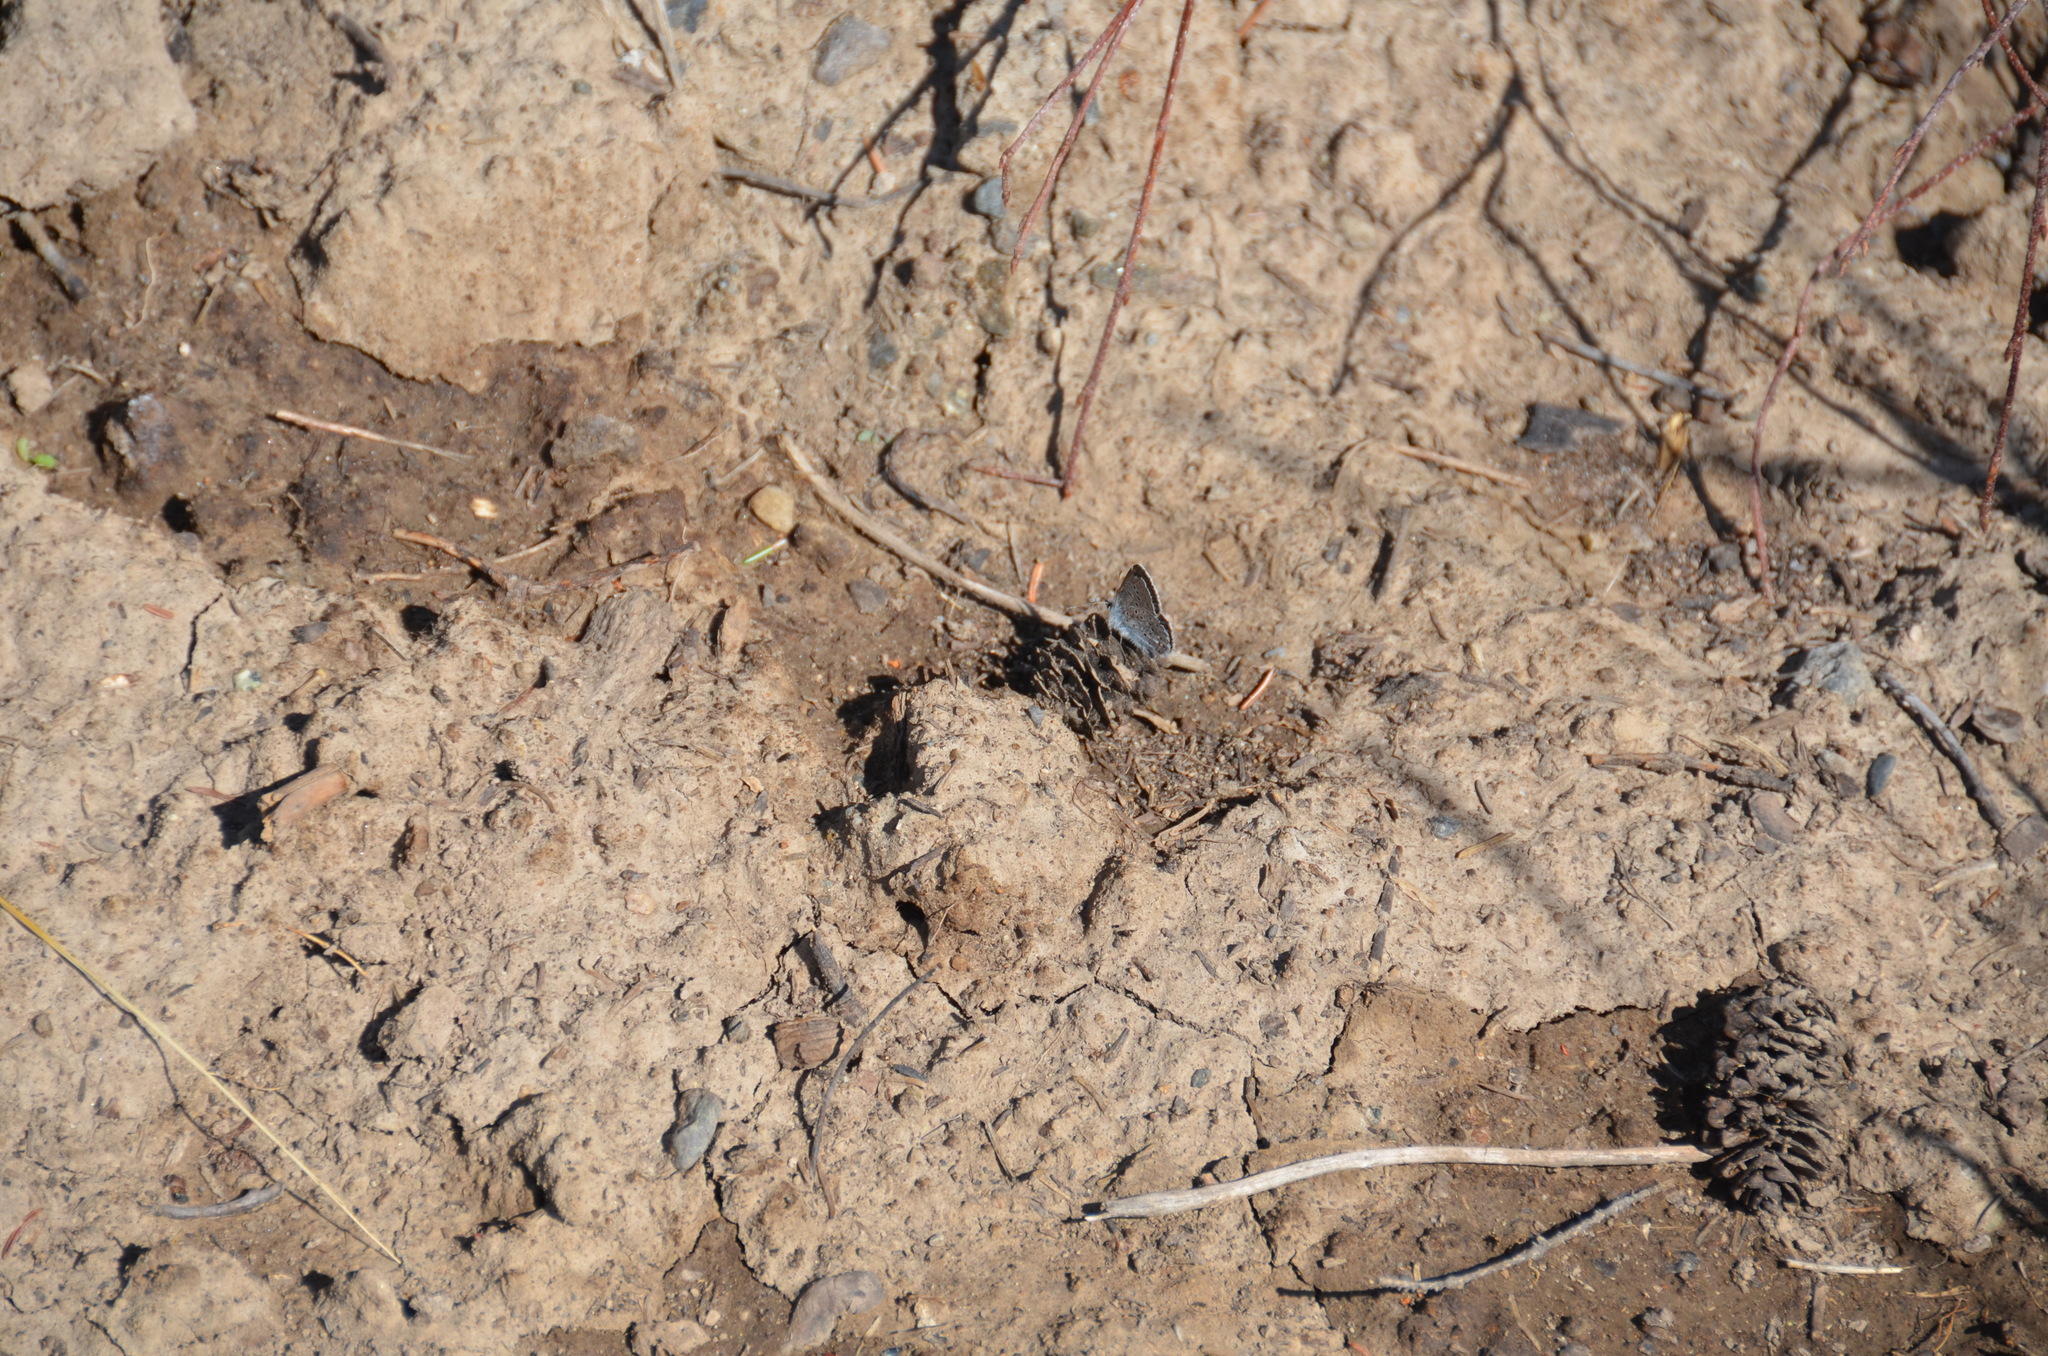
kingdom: Animalia
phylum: Arthropoda
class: Insecta
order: Lepidoptera
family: Lycaenidae
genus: Icaricia
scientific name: Icaricia saepiolus
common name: Greenish blue
